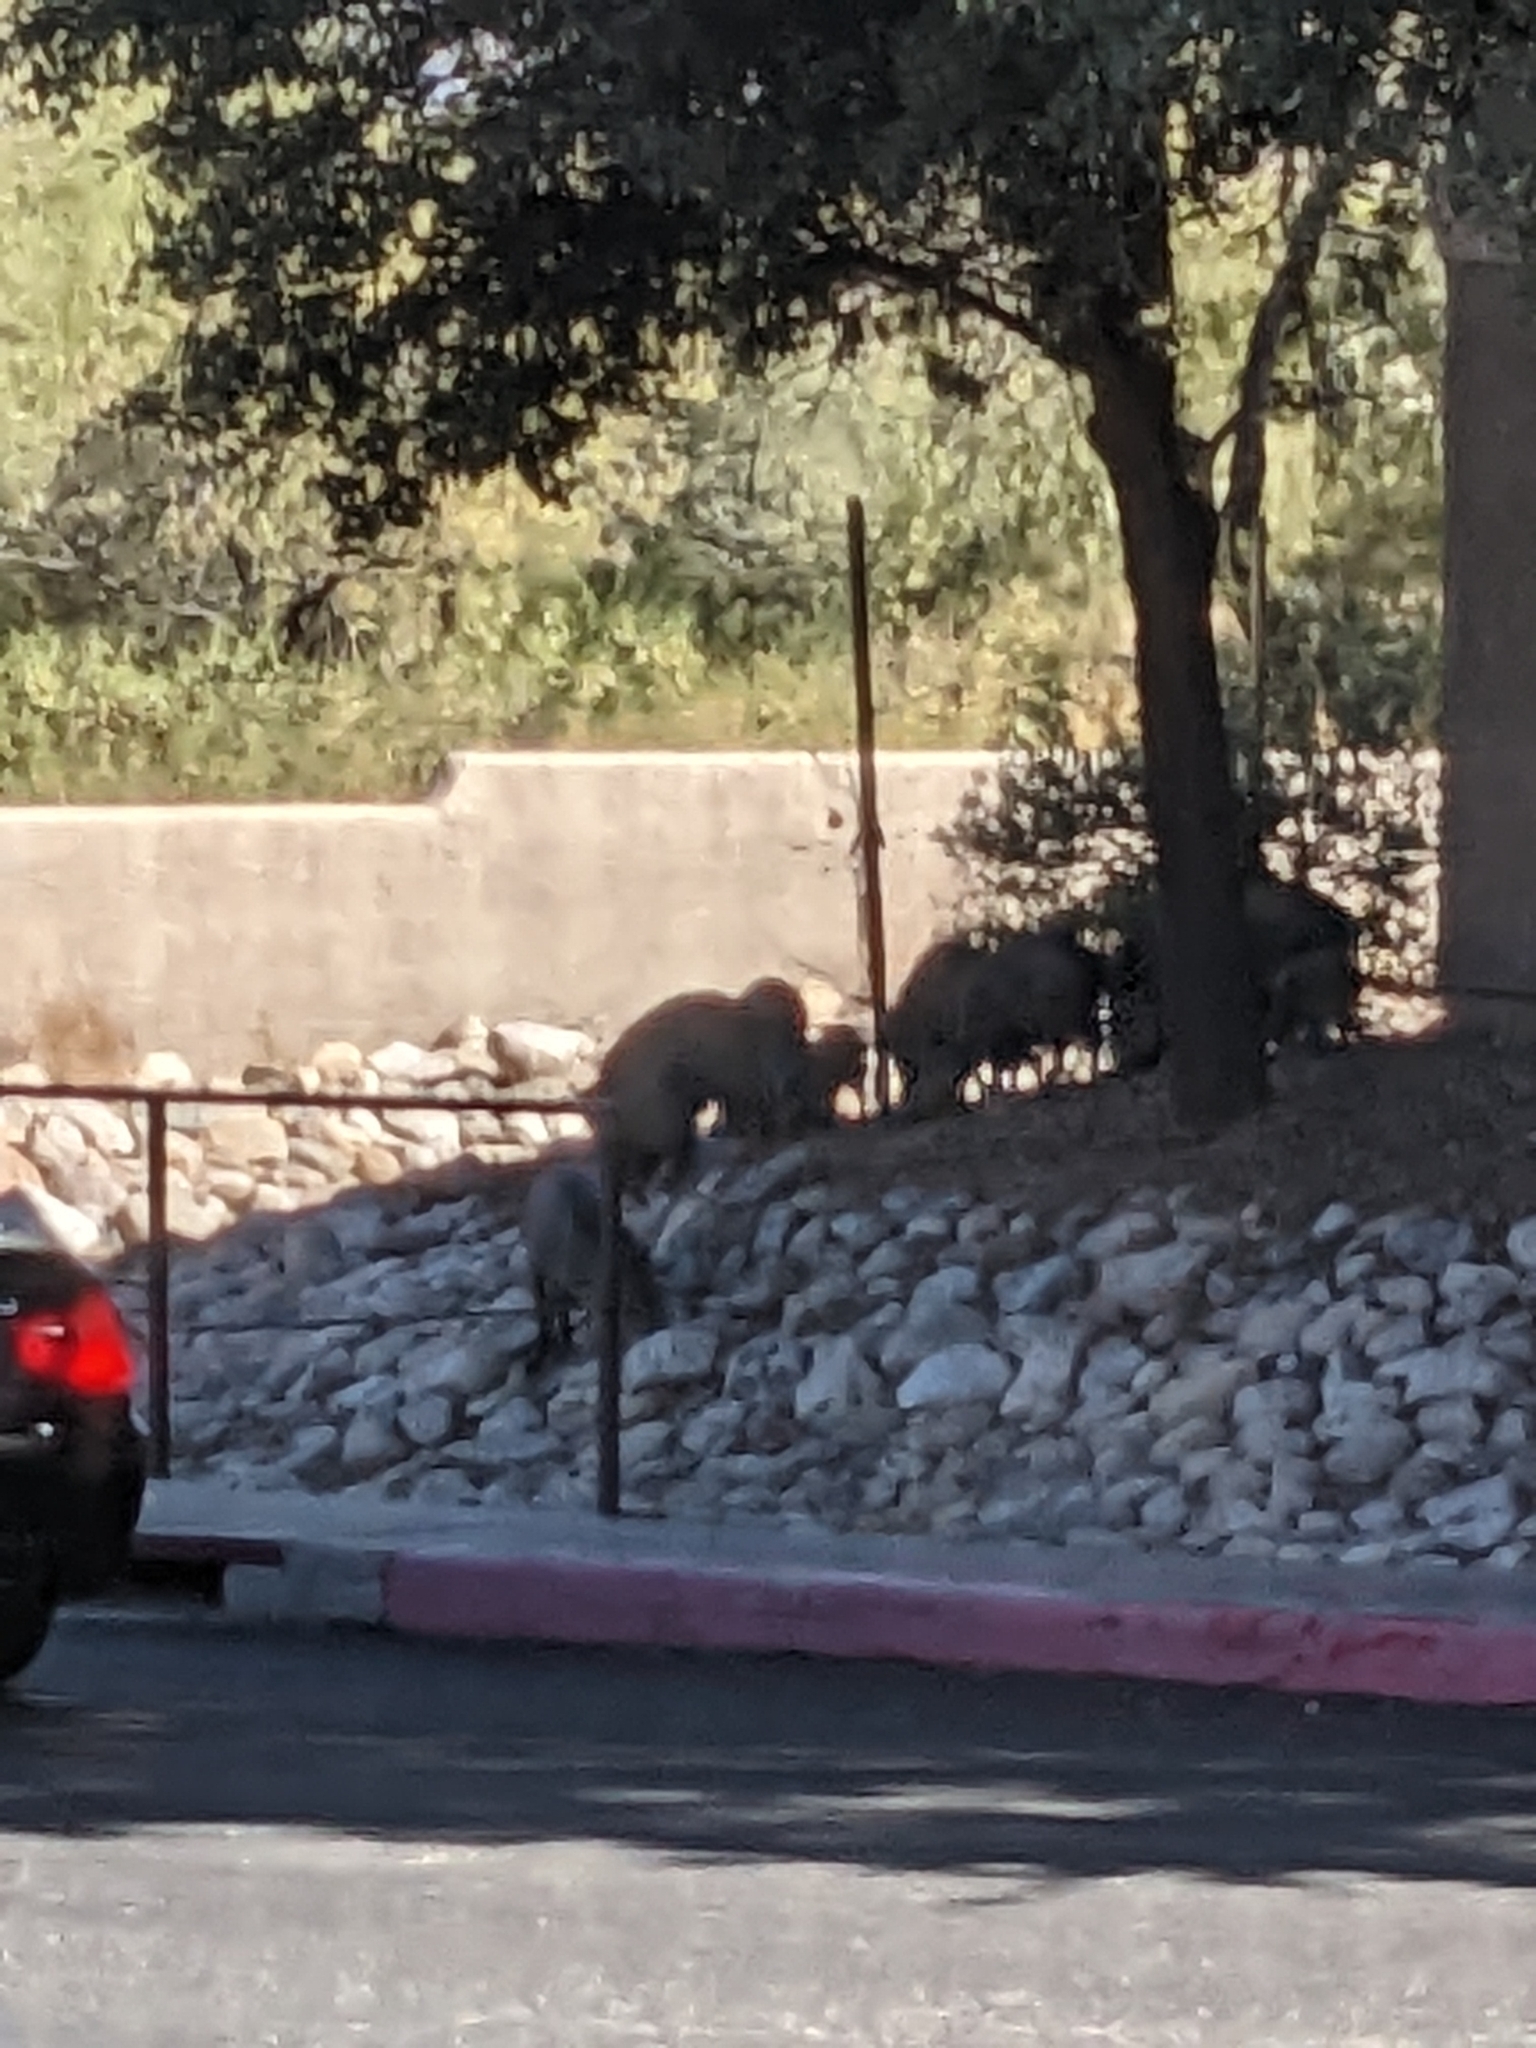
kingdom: Animalia
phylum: Chordata
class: Mammalia
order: Artiodactyla
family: Tayassuidae
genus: Pecari
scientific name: Pecari tajacu
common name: Collared peccary
